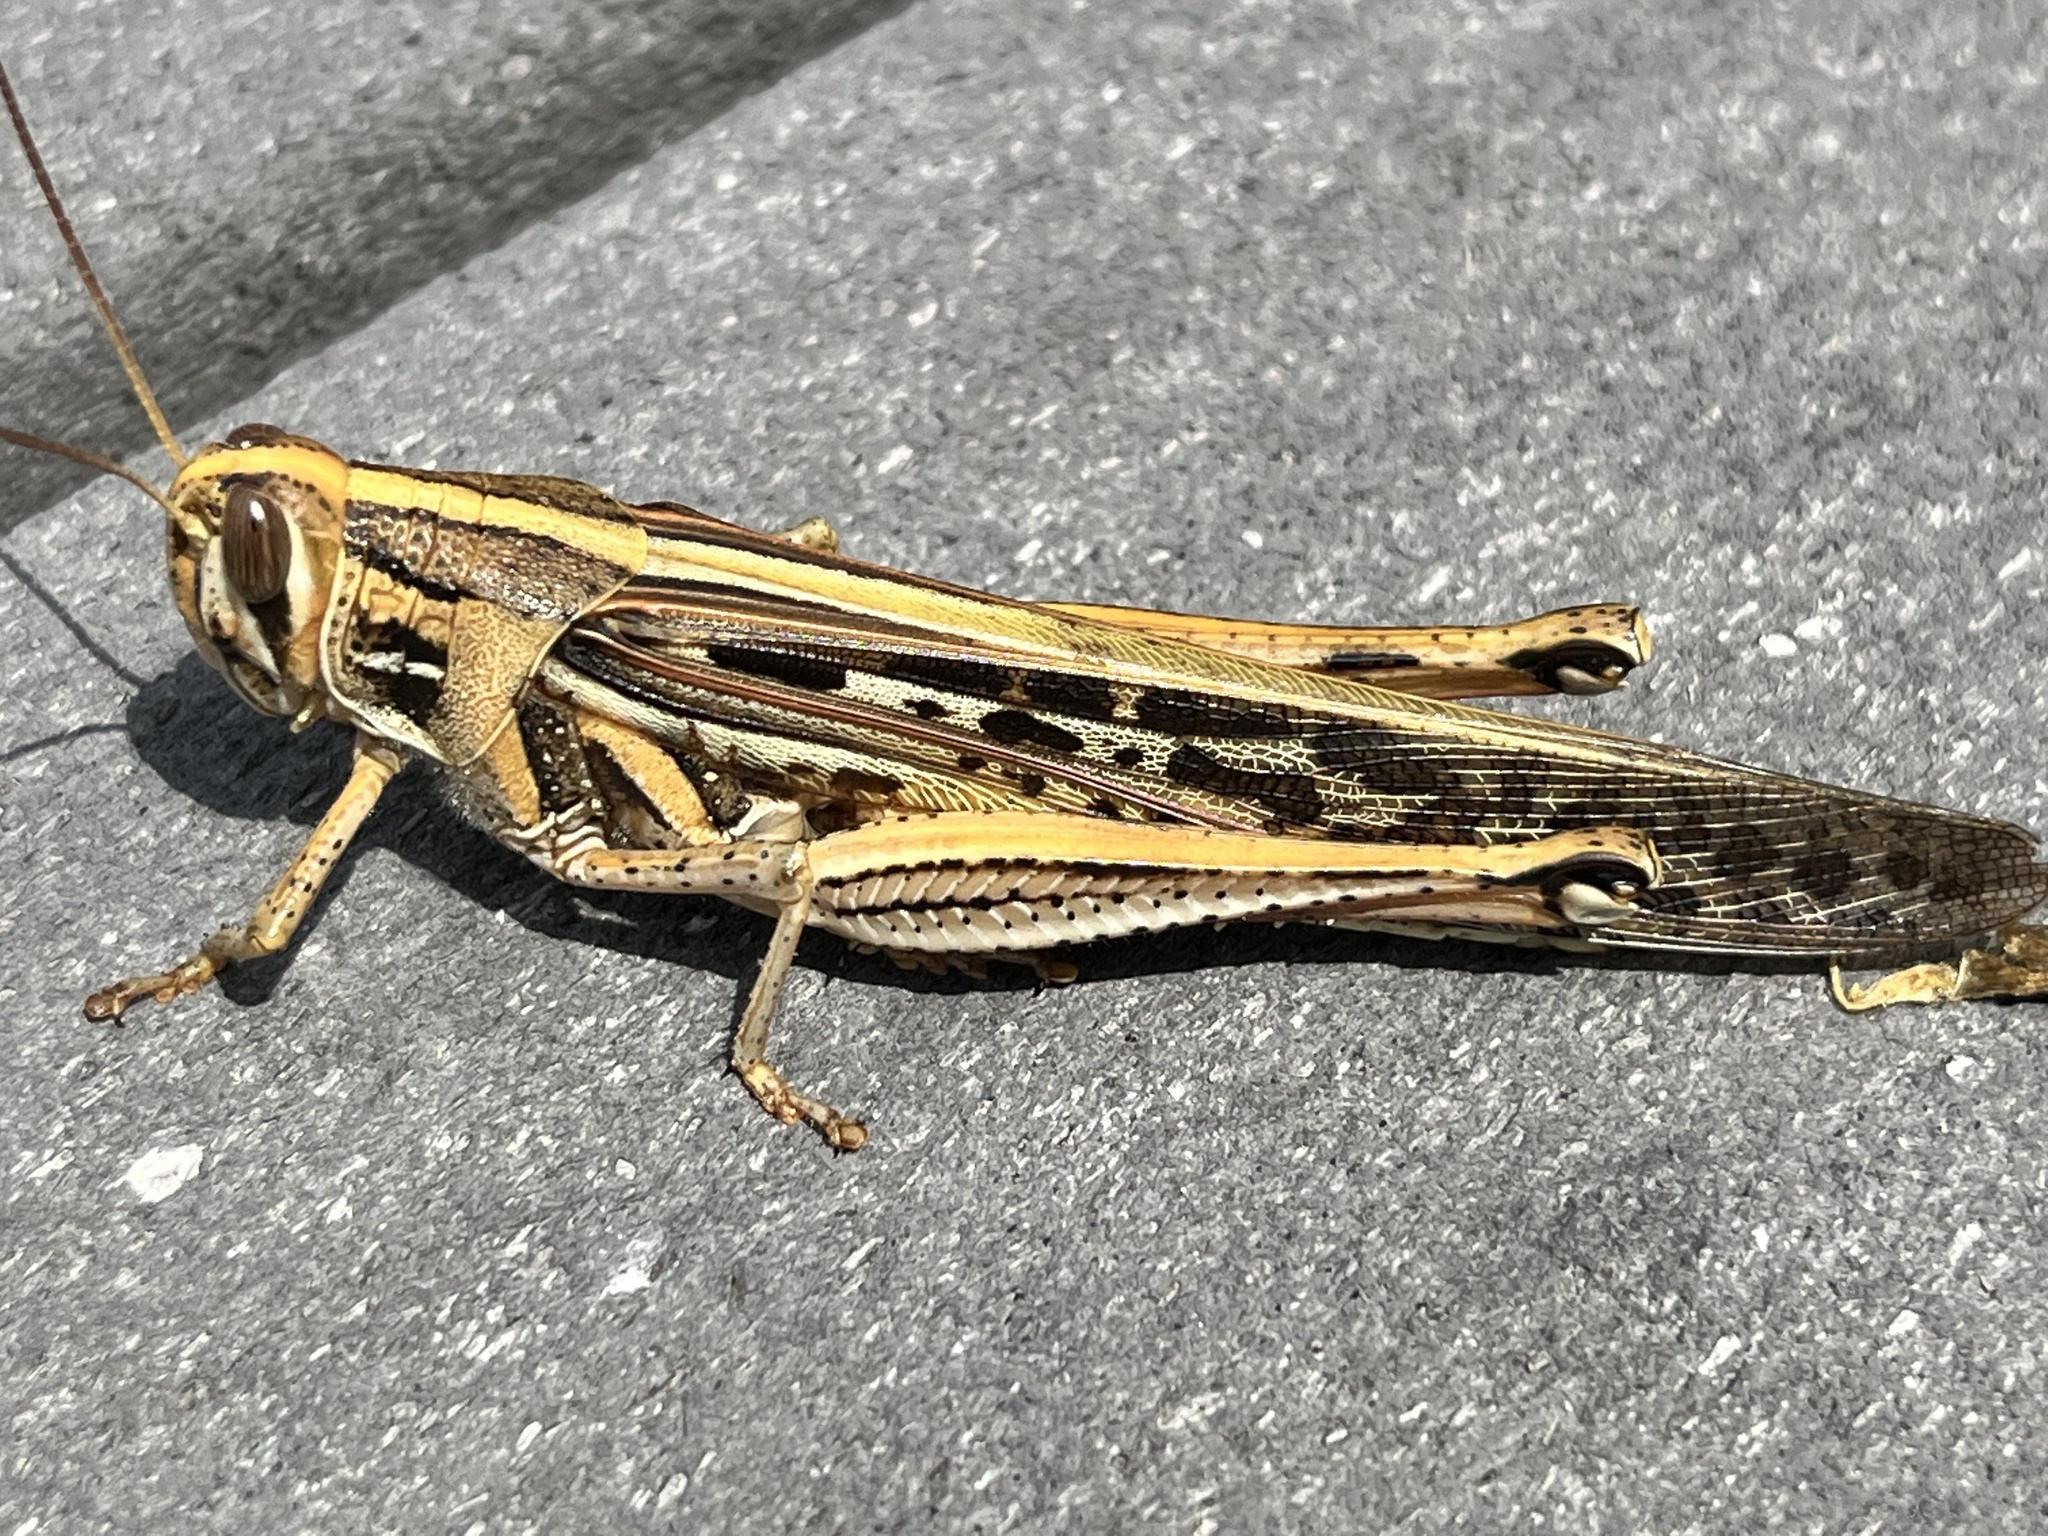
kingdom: Animalia
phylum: Arthropoda
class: Insecta
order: Orthoptera
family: Acrididae
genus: Schistocerca
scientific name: Schistocerca americana
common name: American bird locust
